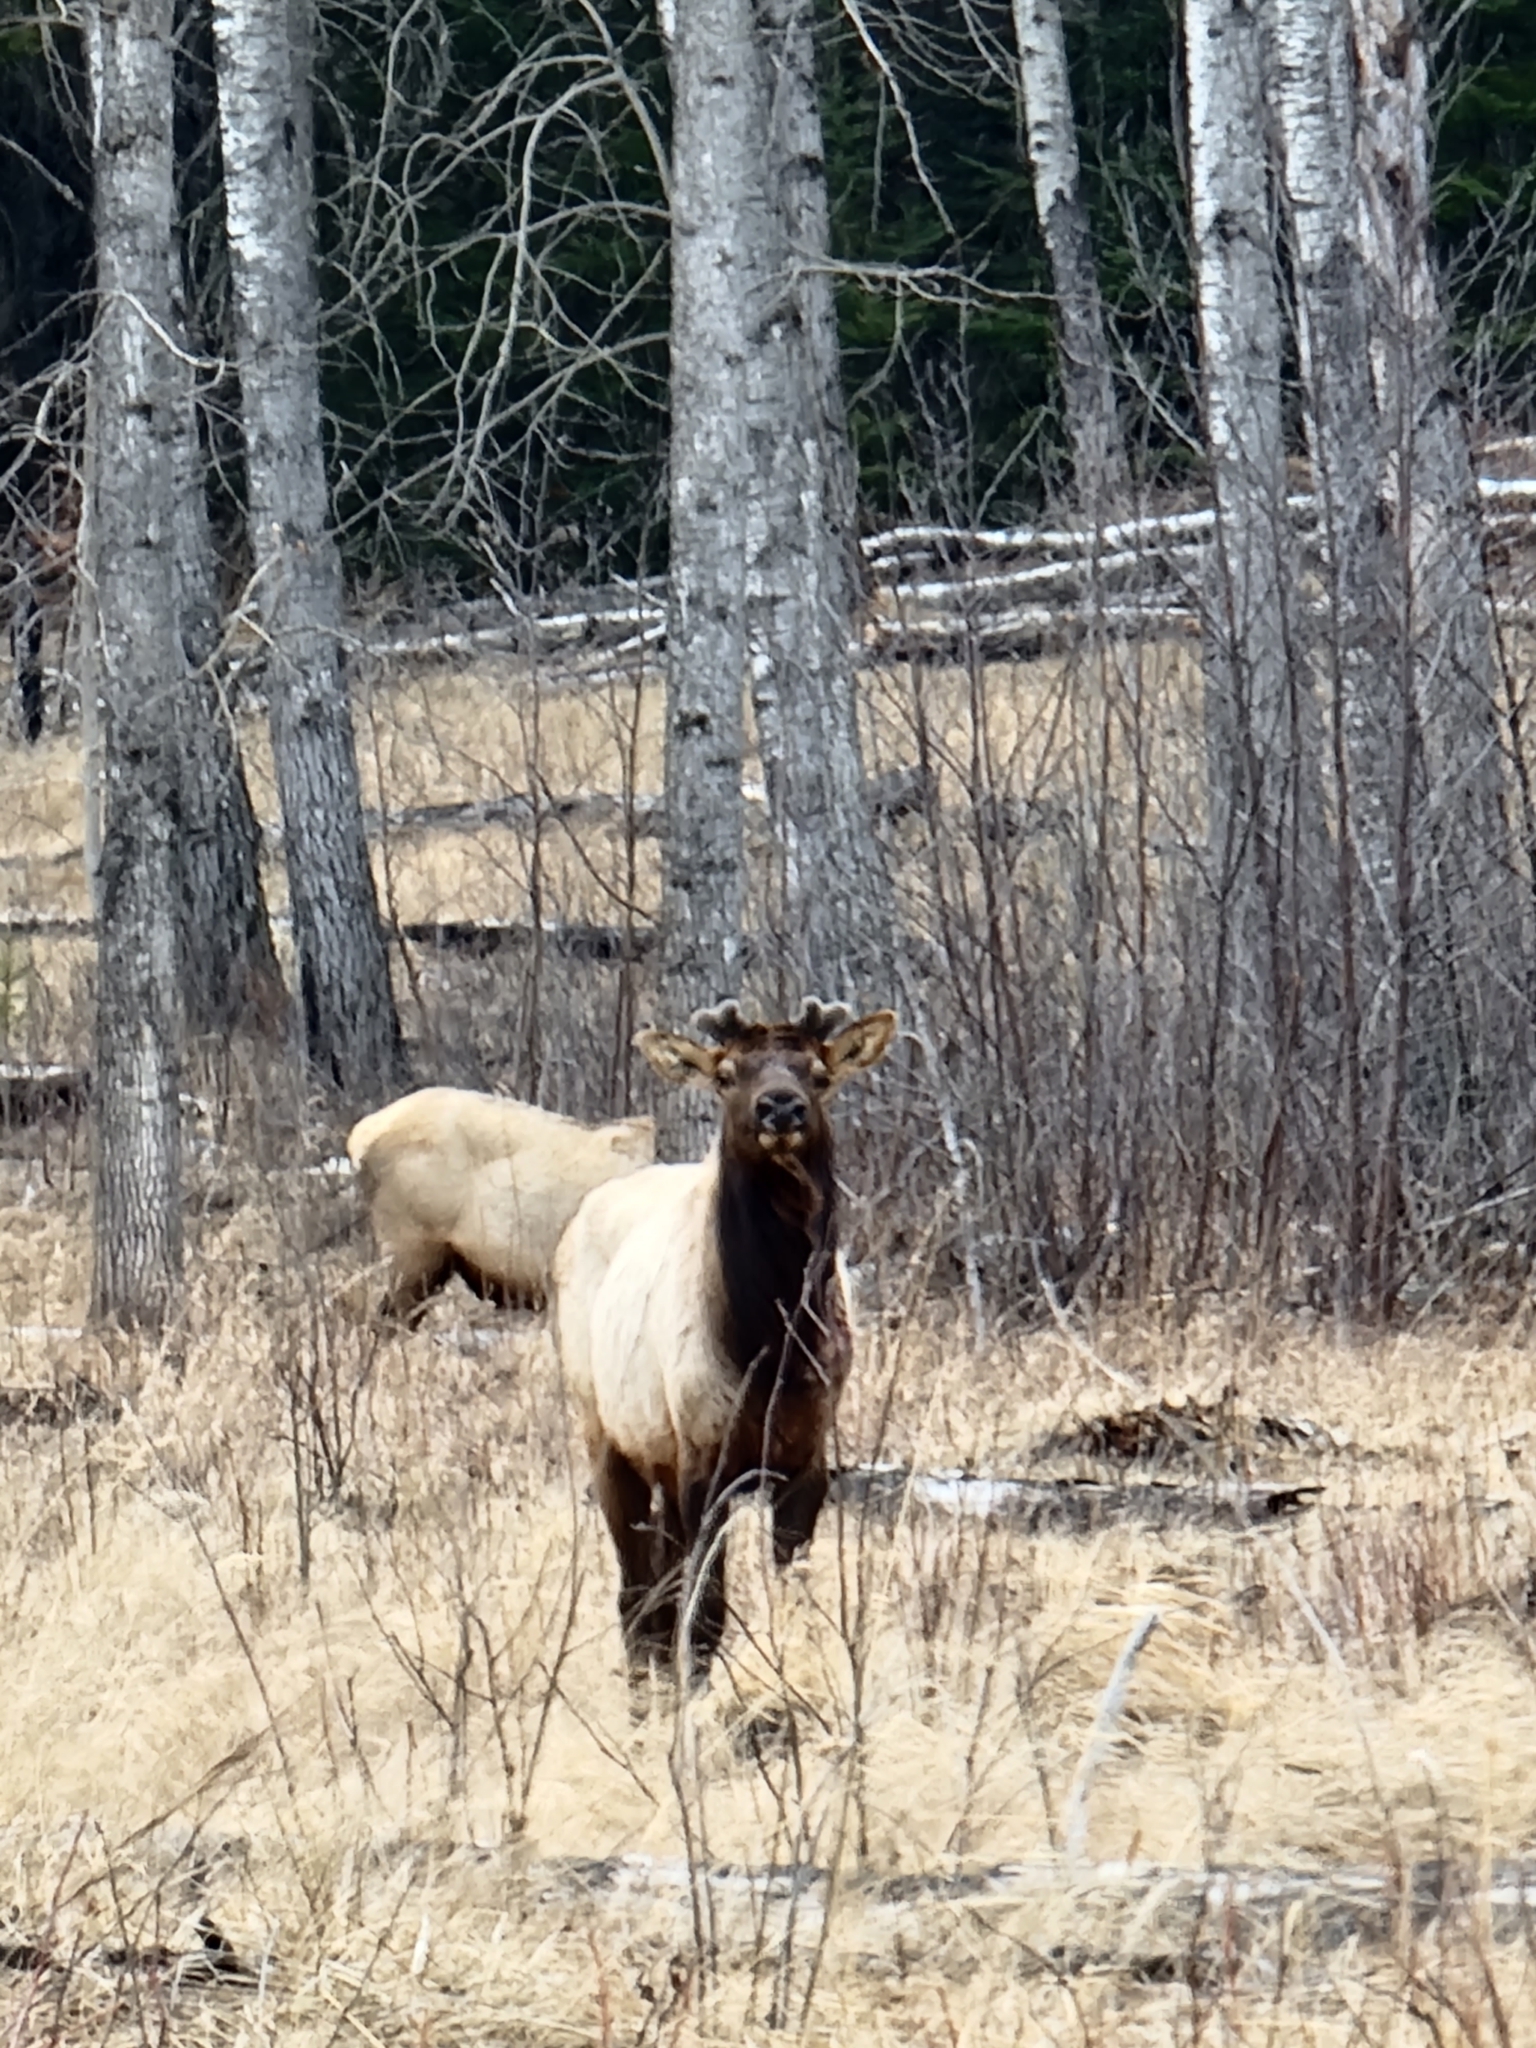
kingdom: Animalia
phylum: Chordata
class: Mammalia
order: Artiodactyla
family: Cervidae
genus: Cervus
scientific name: Cervus elaphus
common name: Red deer
